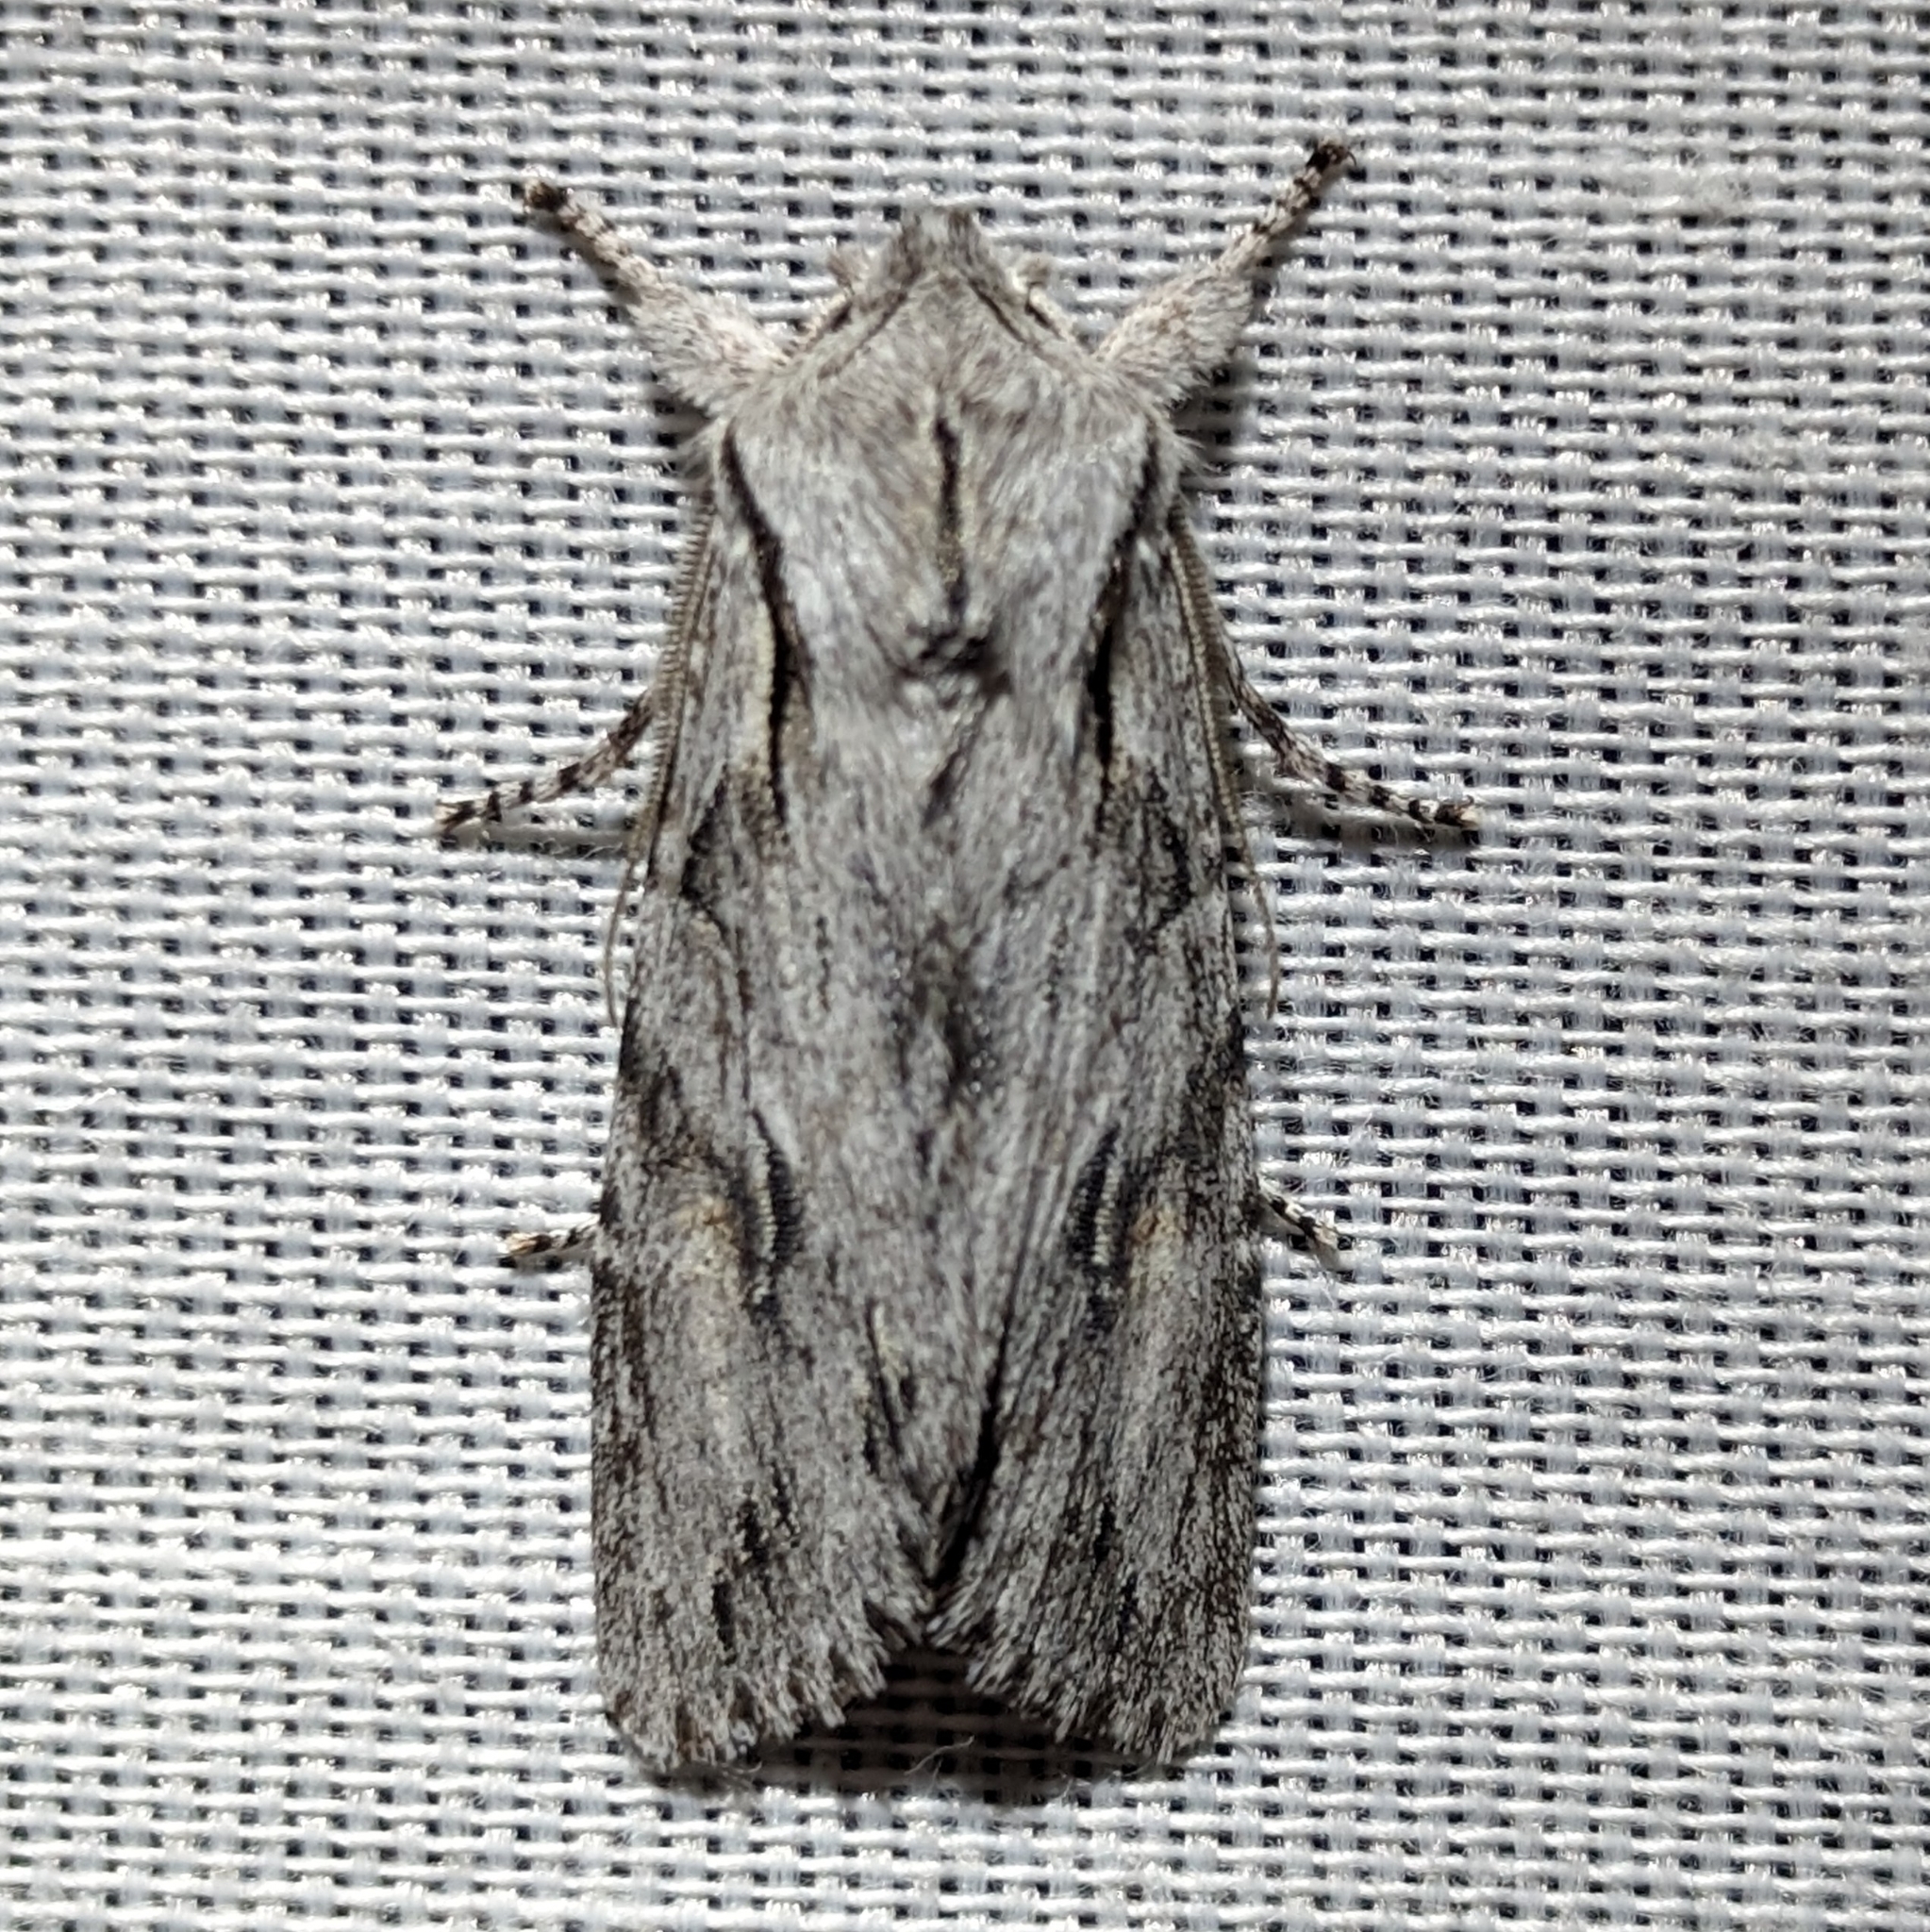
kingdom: Animalia
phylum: Arthropoda
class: Insecta
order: Lepidoptera
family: Noctuidae
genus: Egira
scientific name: Egira crucialis
